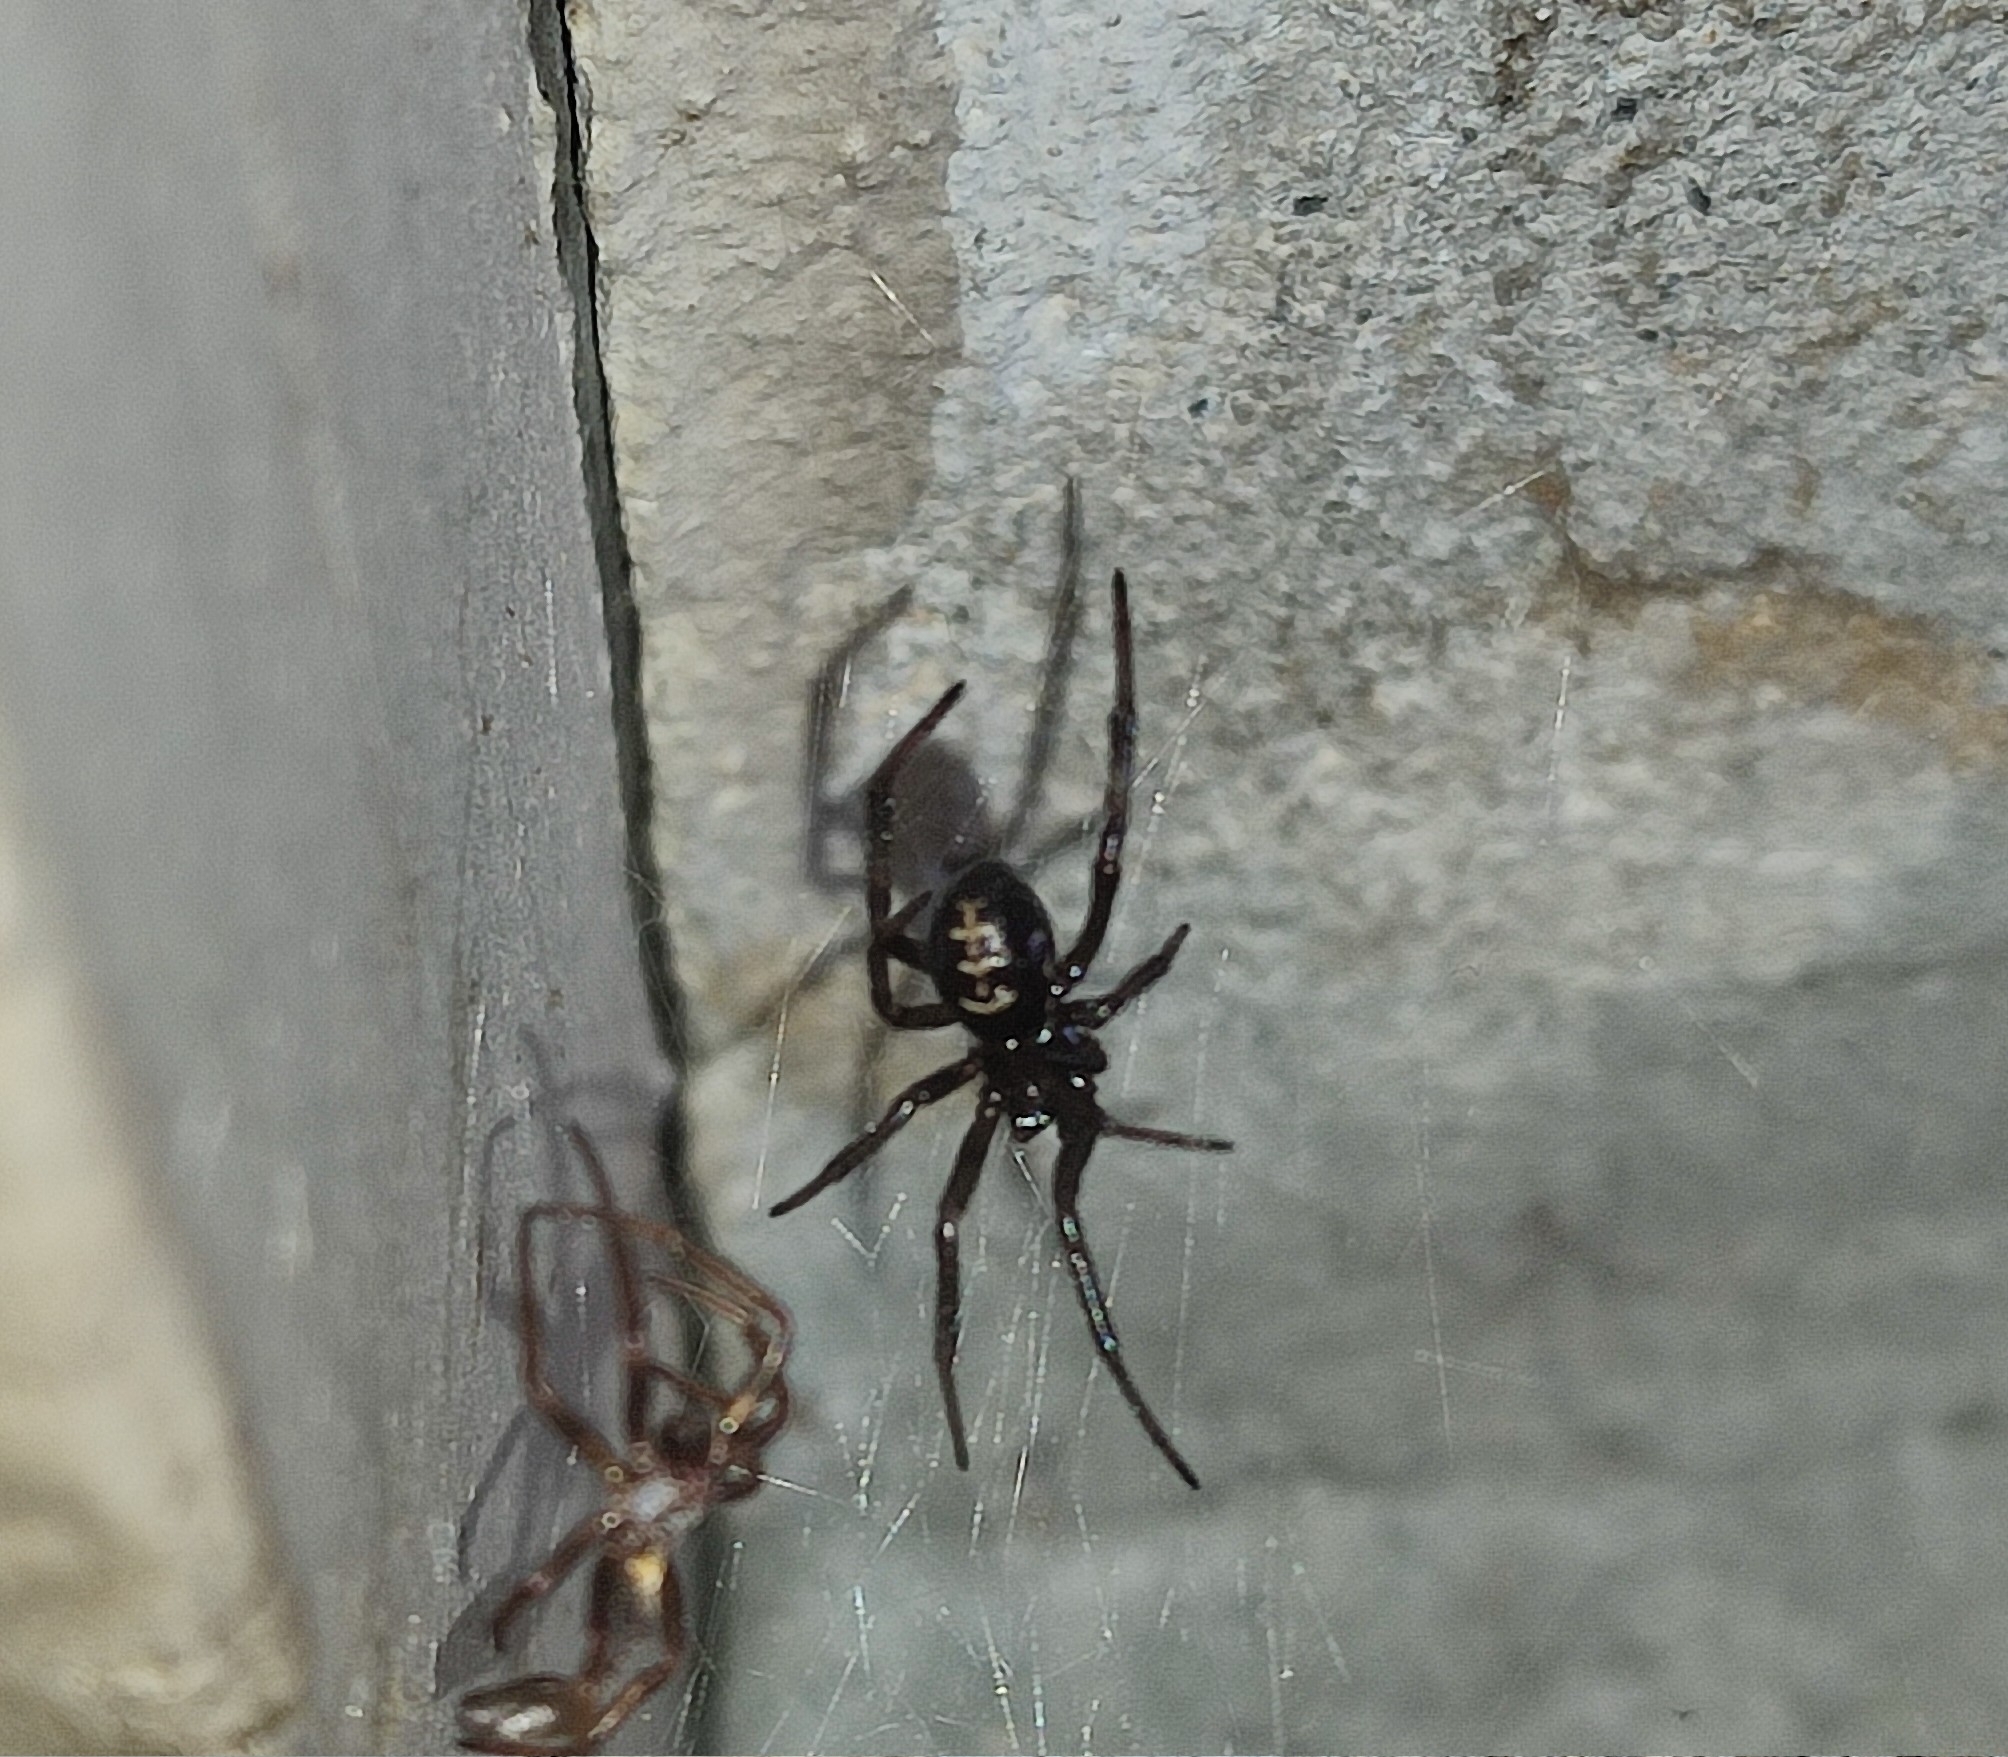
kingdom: Animalia
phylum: Arthropoda
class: Arachnida
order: Araneae
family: Theridiidae
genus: Steatoda
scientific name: Steatoda paykulliana
